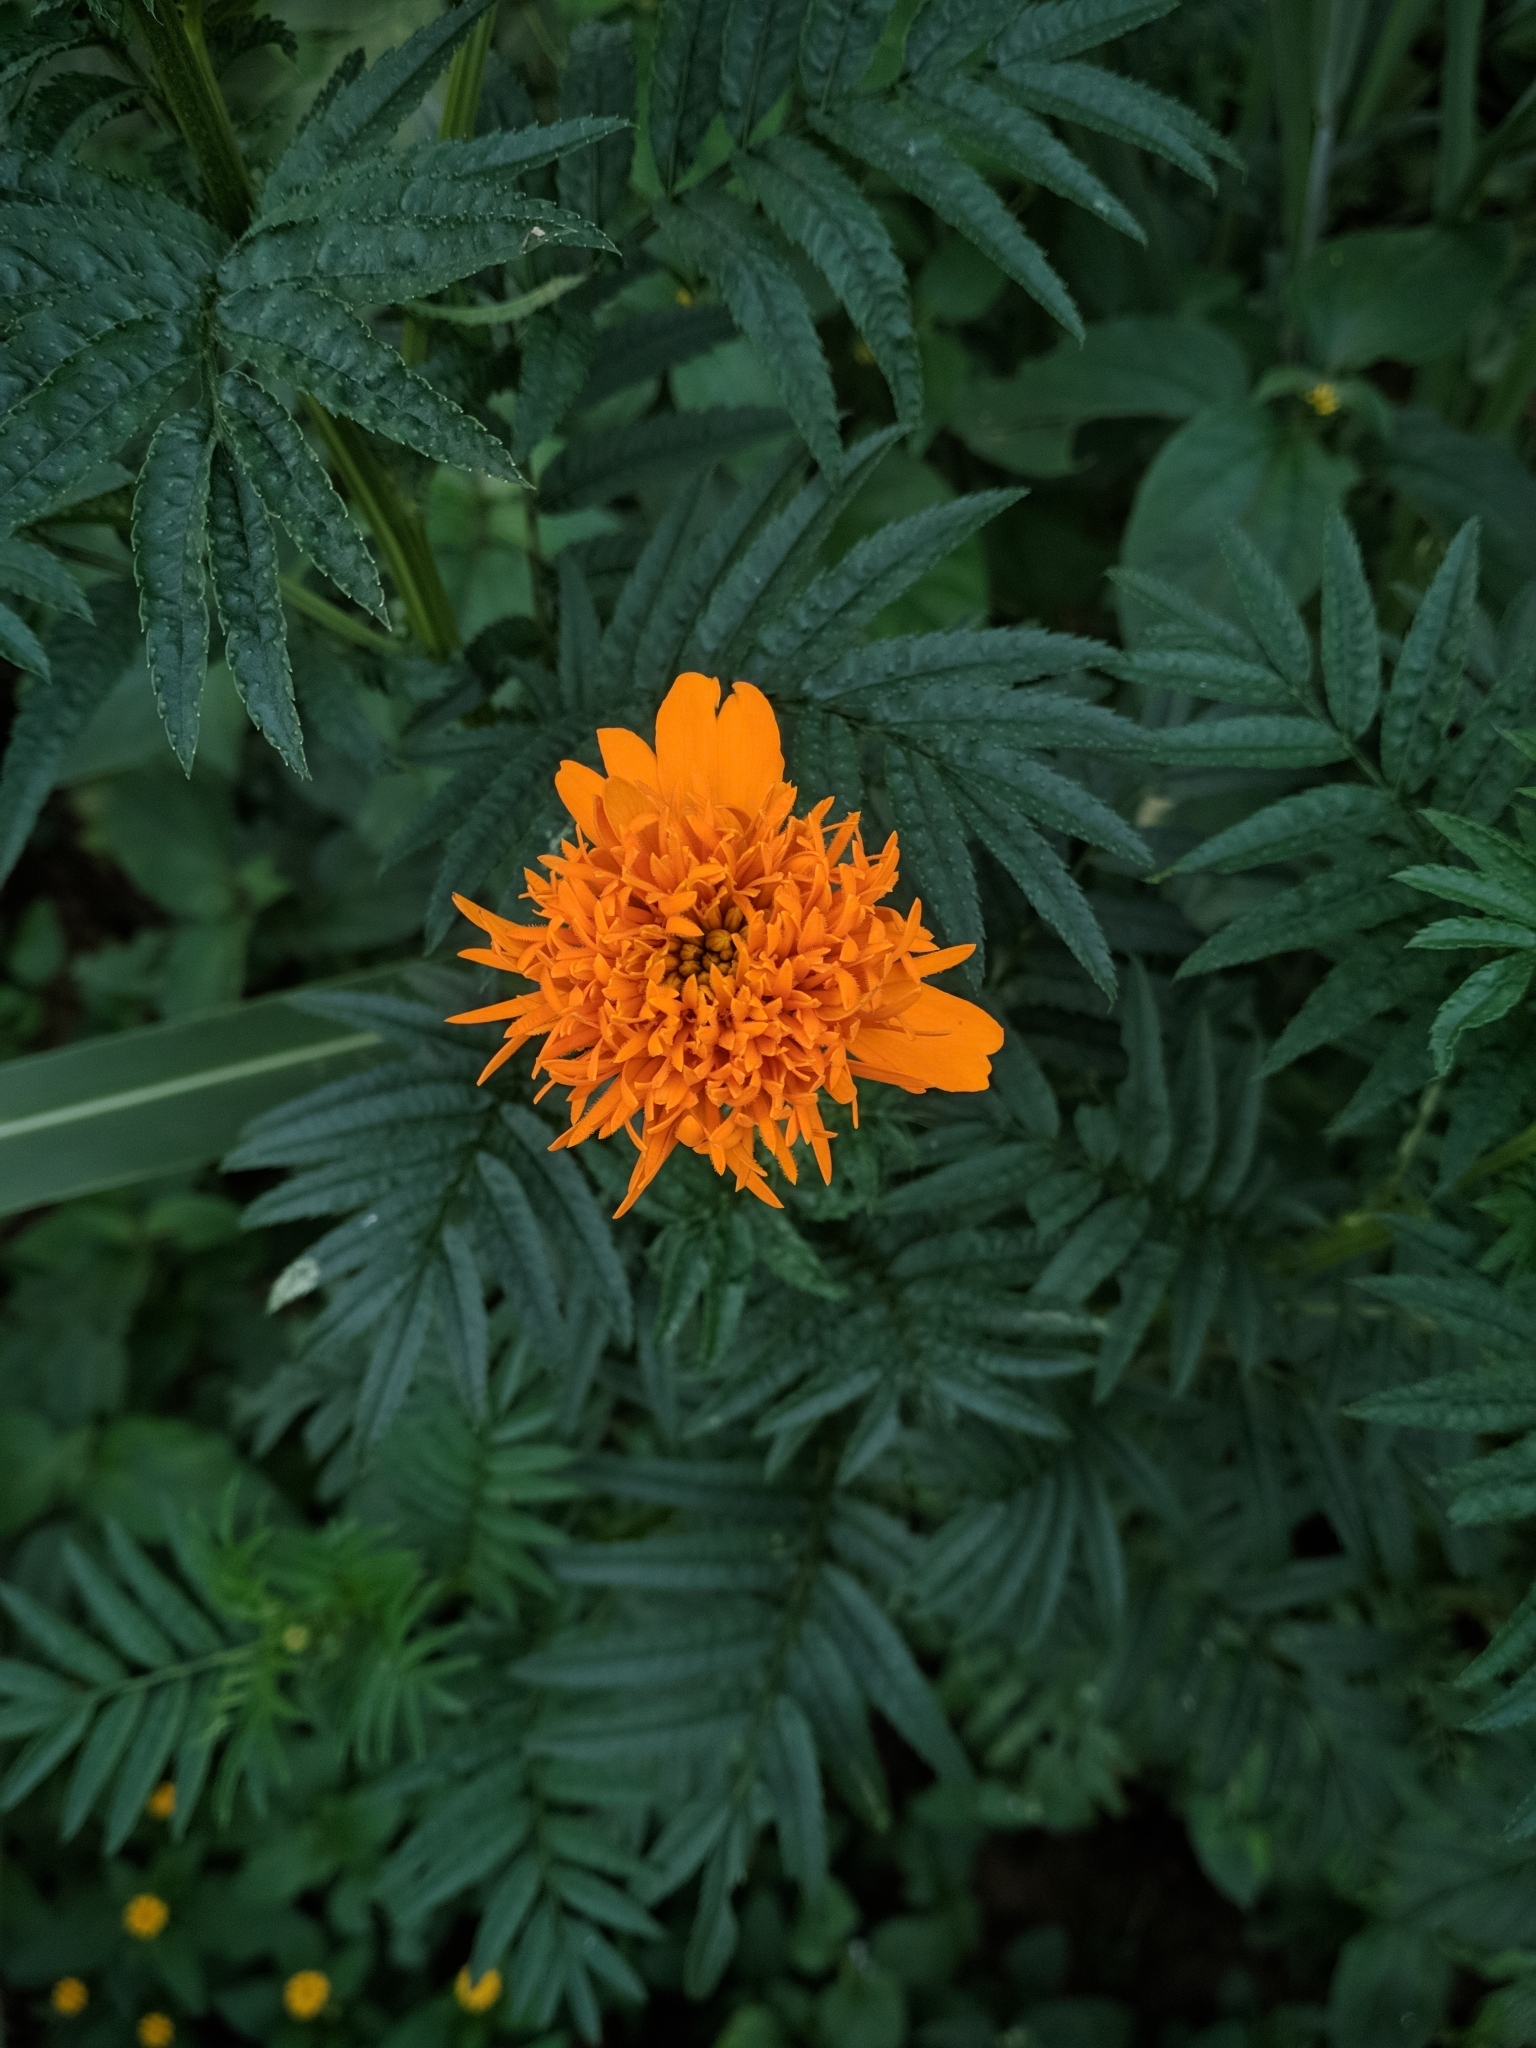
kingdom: Plantae
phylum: Tracheophyta
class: Magnoliopsida
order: Asterales
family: Asteraceae
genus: Tagetes
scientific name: Tagetes erecta
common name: African marigold
